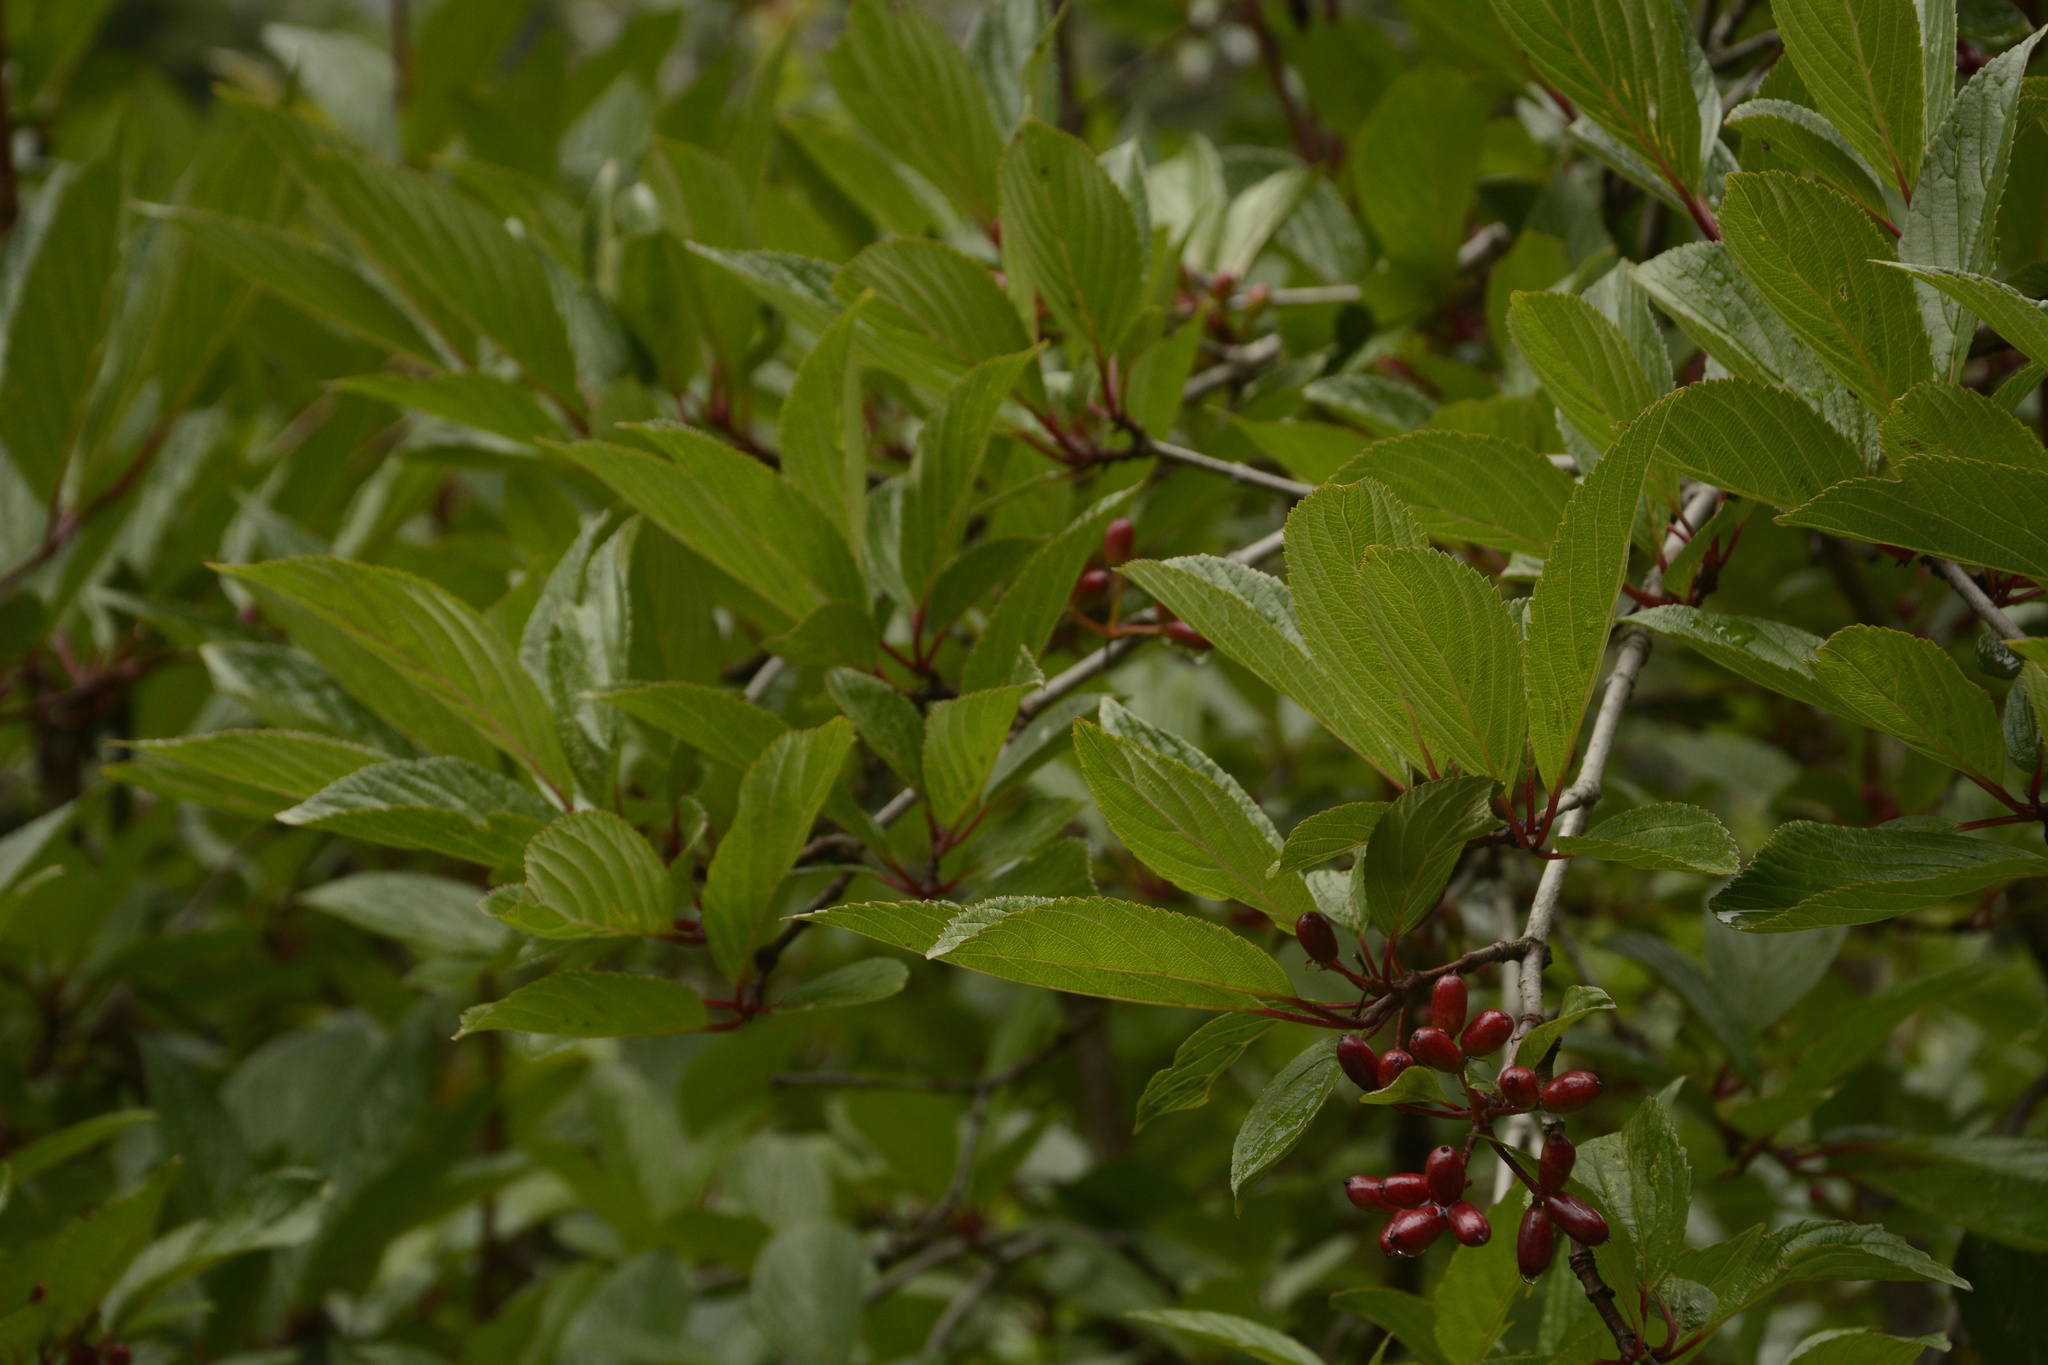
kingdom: Plantae
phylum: Tracheophyta
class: Magnoliopsida
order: Dipsacales
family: Viburnaceae
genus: Viburnum
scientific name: Viburnum erubescens
